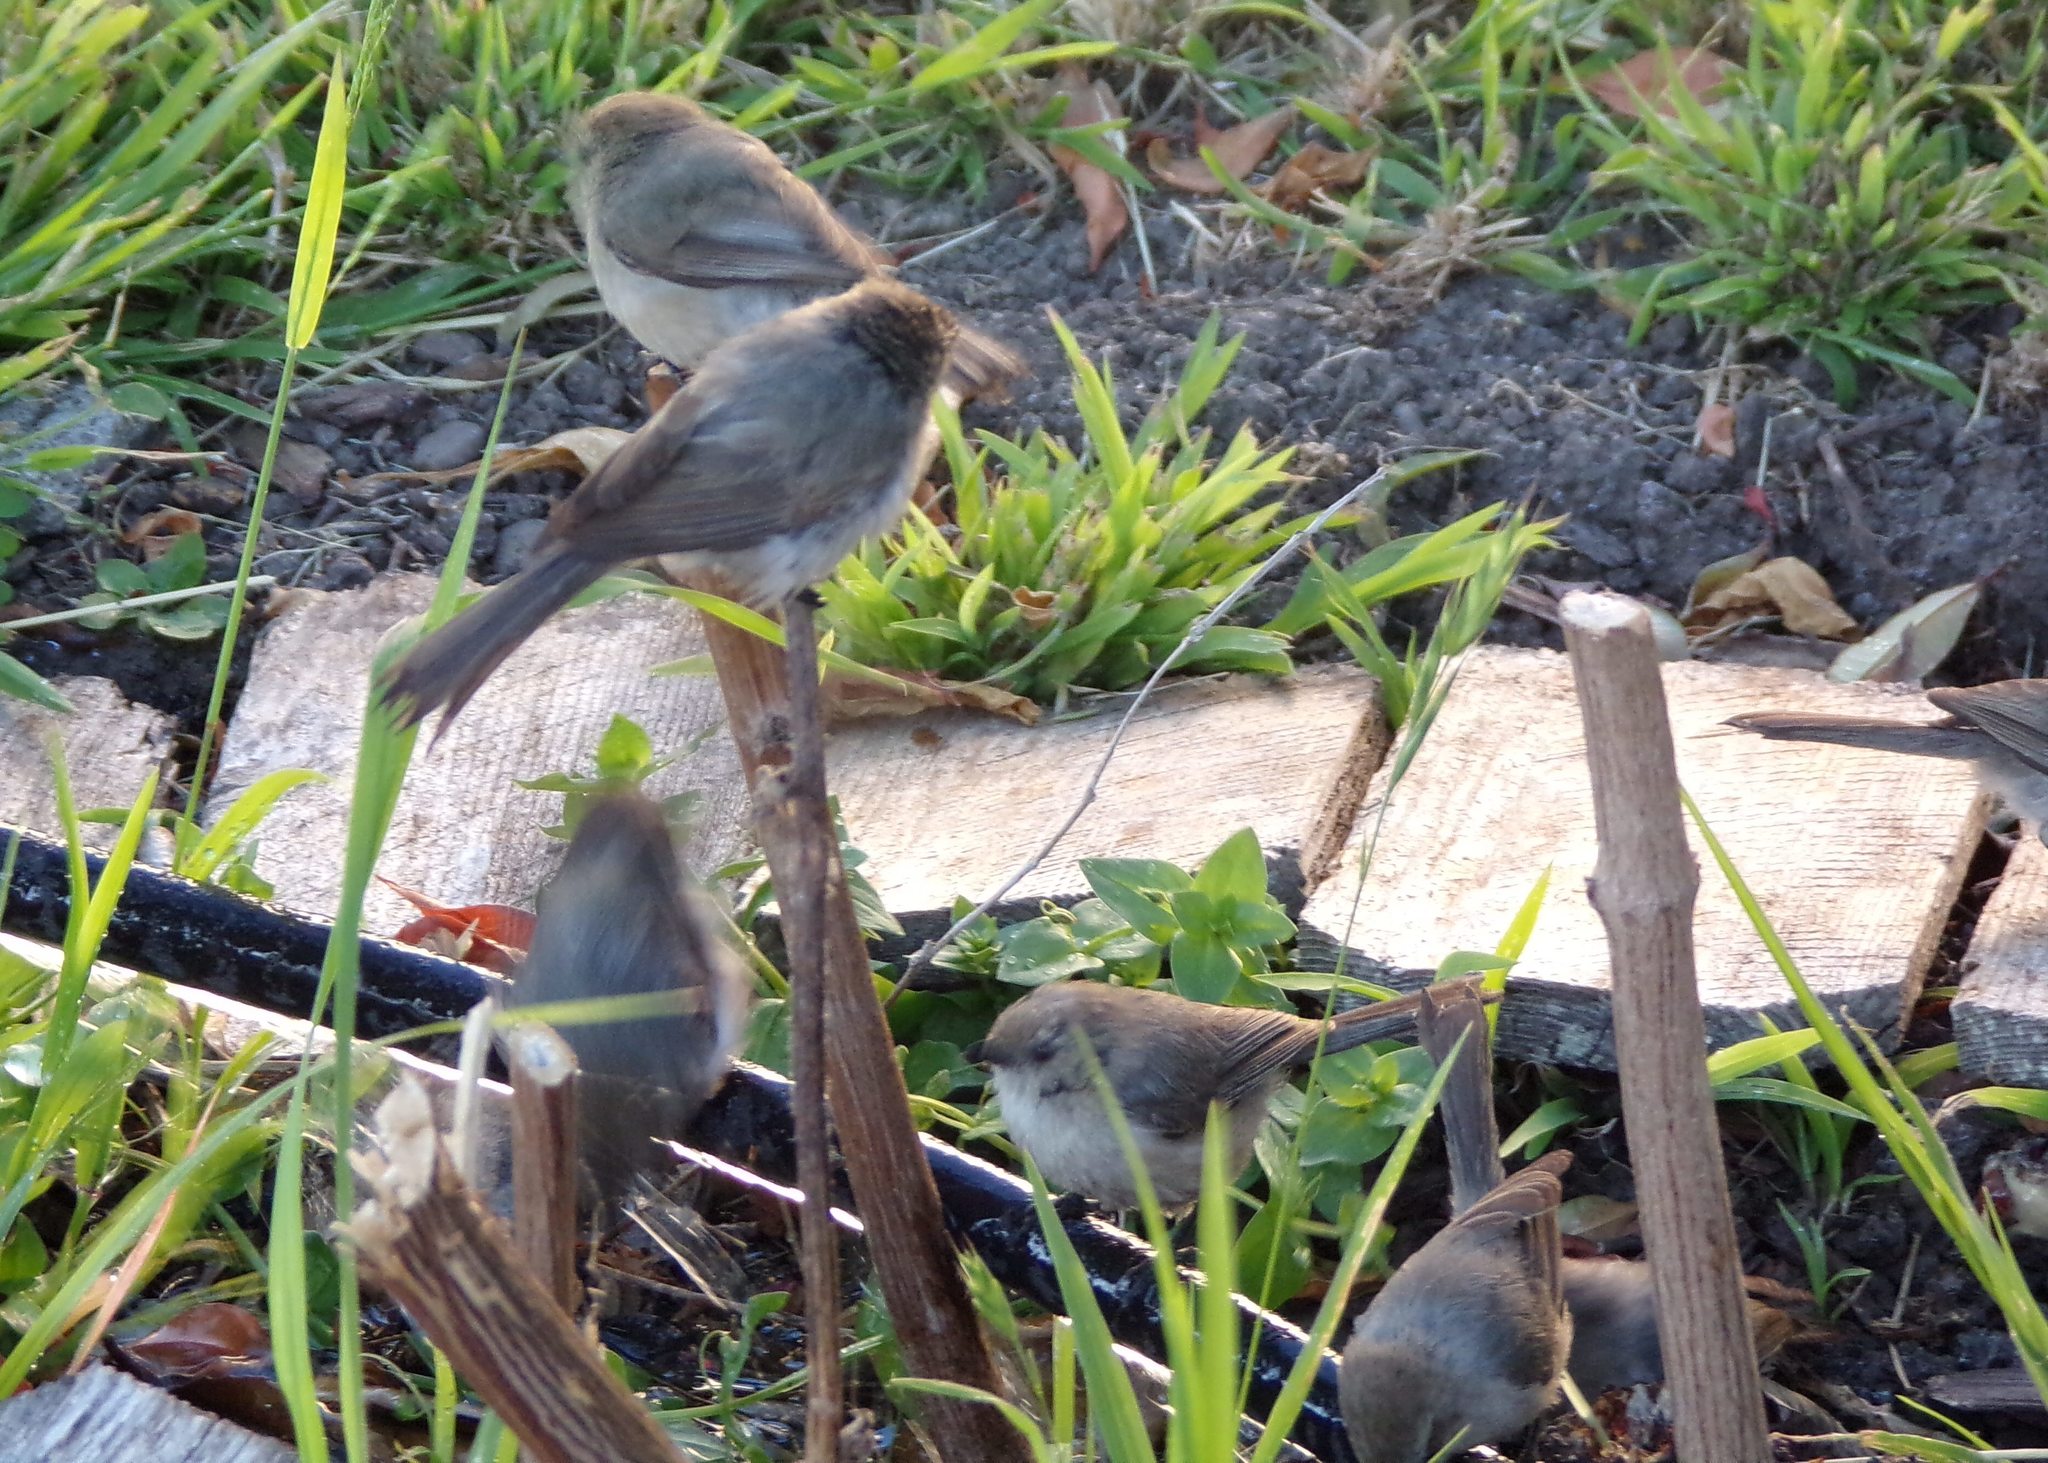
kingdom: Animalia
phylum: Chordata
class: Aves
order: Passeriformes
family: Aegithalidae
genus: Psaltriparus
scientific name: Psaltriparus minimus
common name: American bushtit
